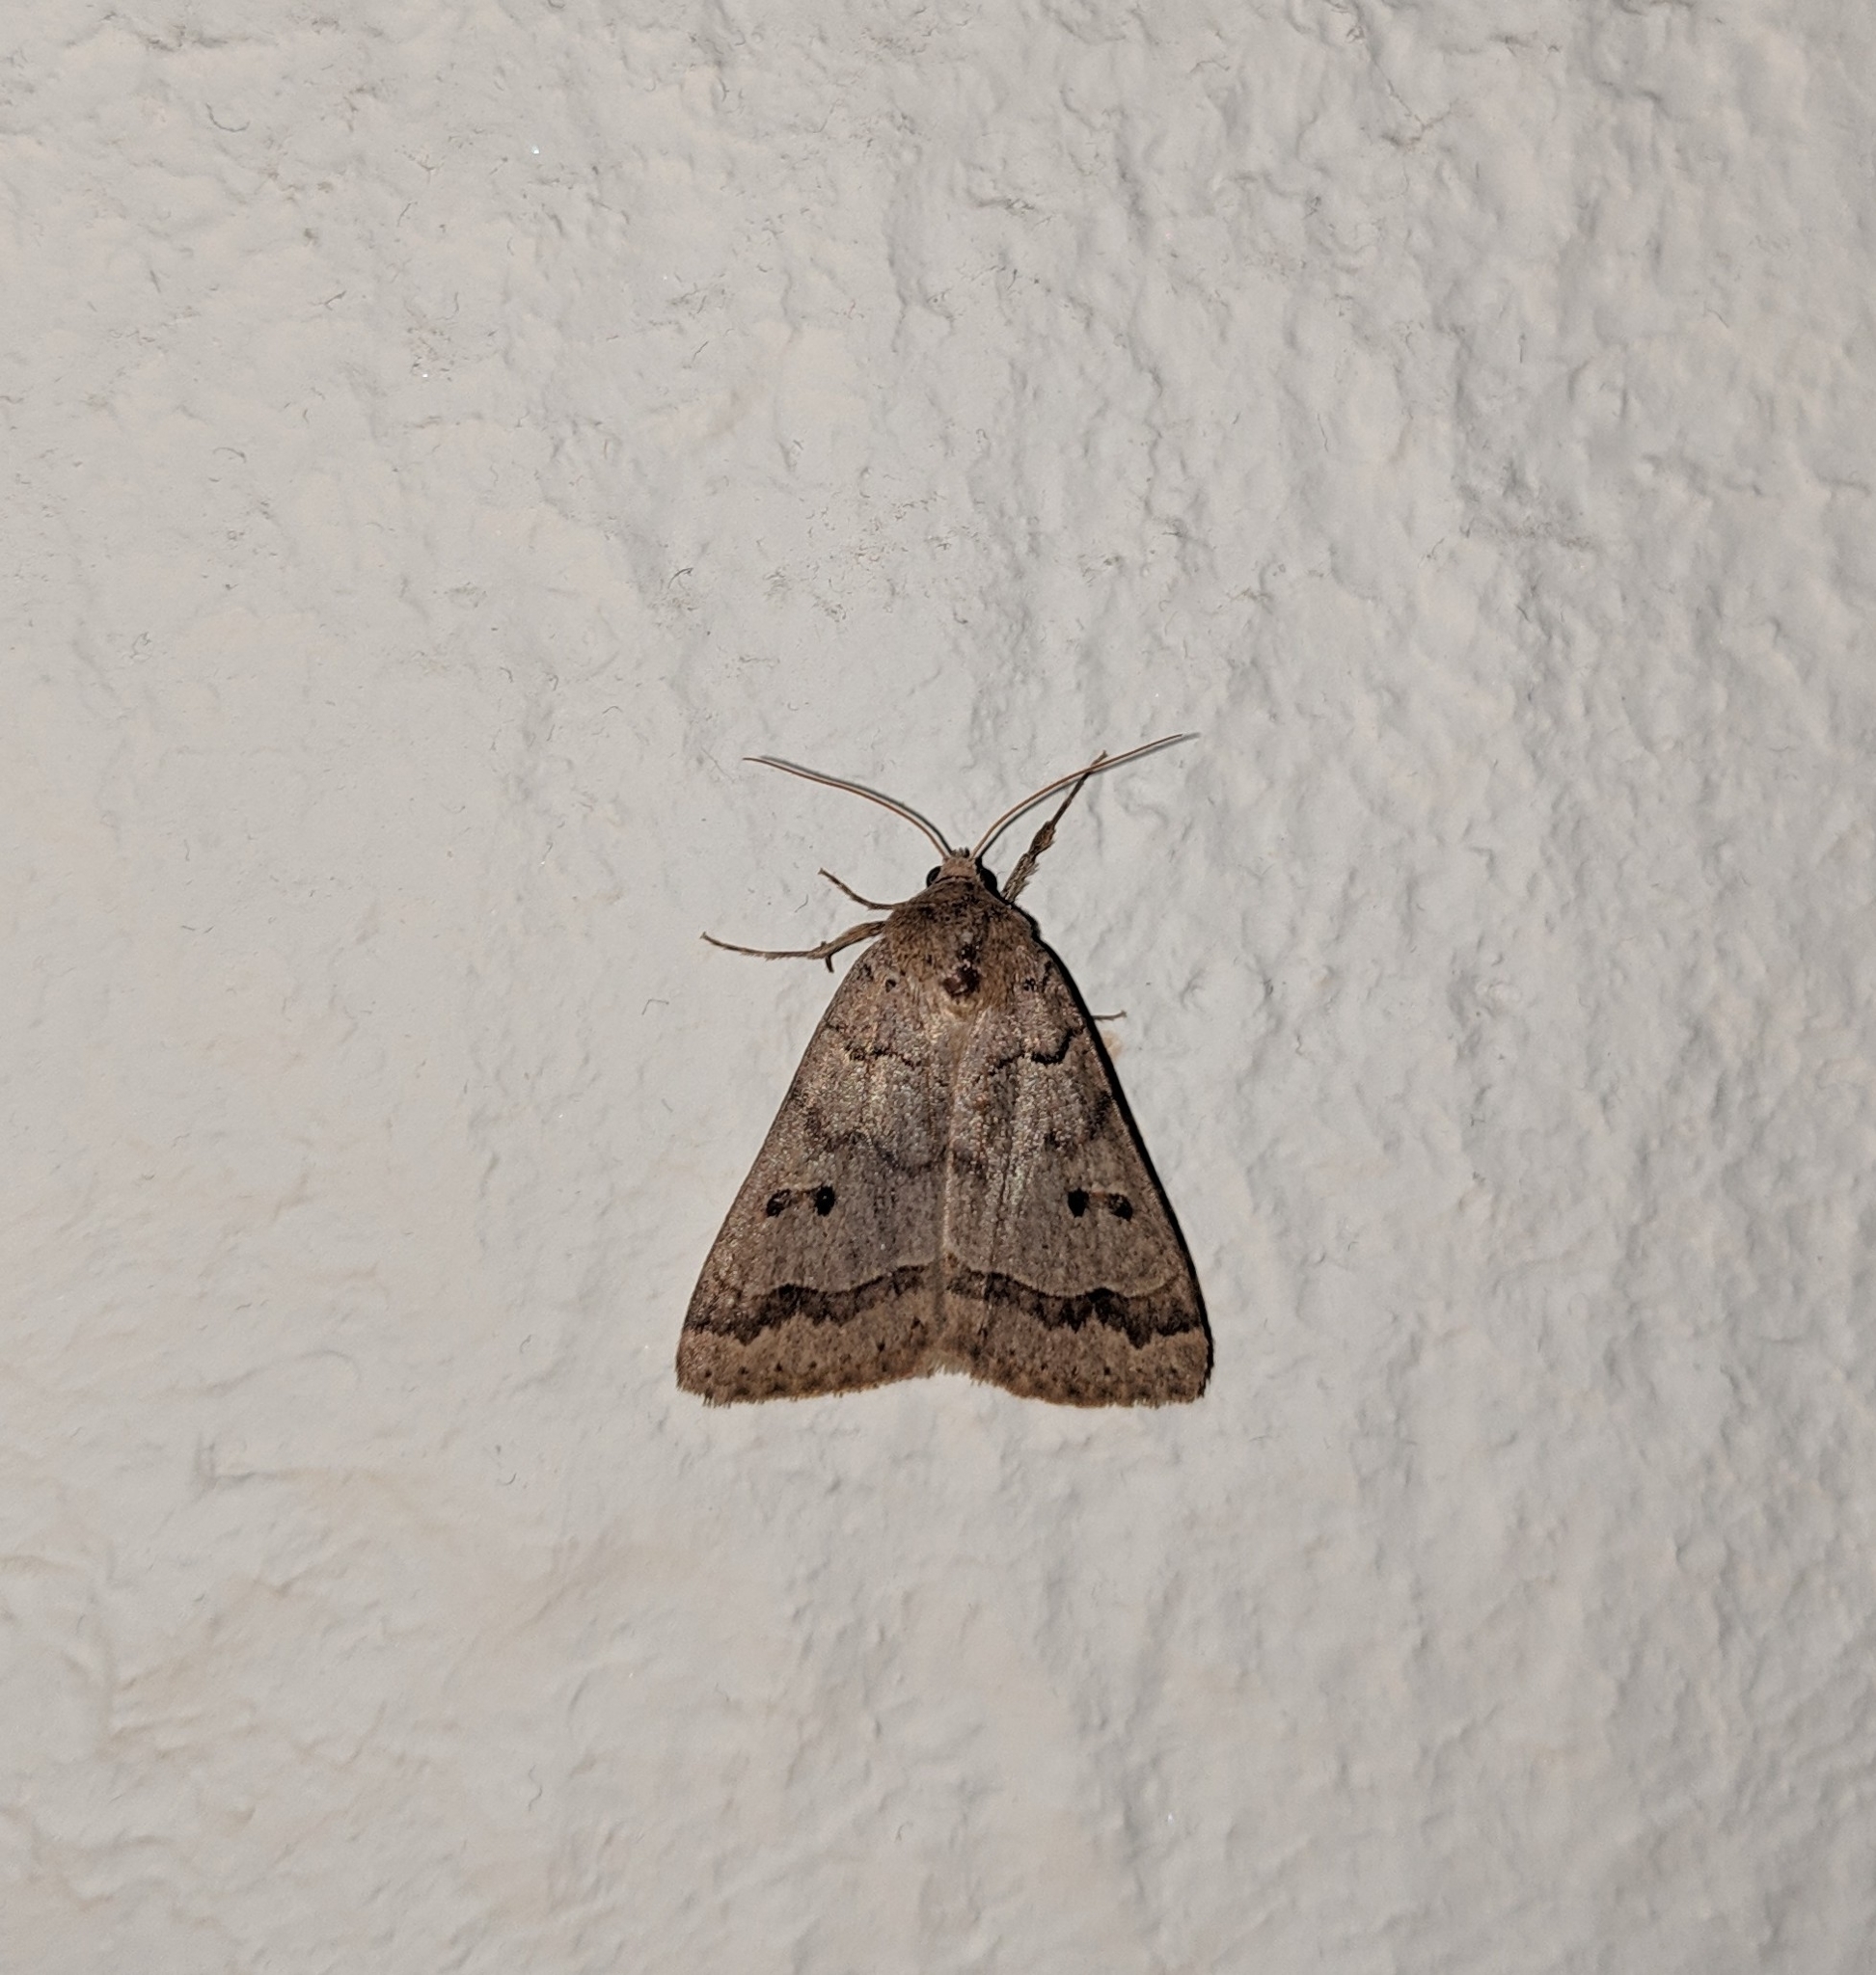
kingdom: Animalia
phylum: Arthropoda
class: Insecta
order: Lepidoptera
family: Erebidae
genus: Phoberia
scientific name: Phoberia atomaris
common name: Common oak moth
